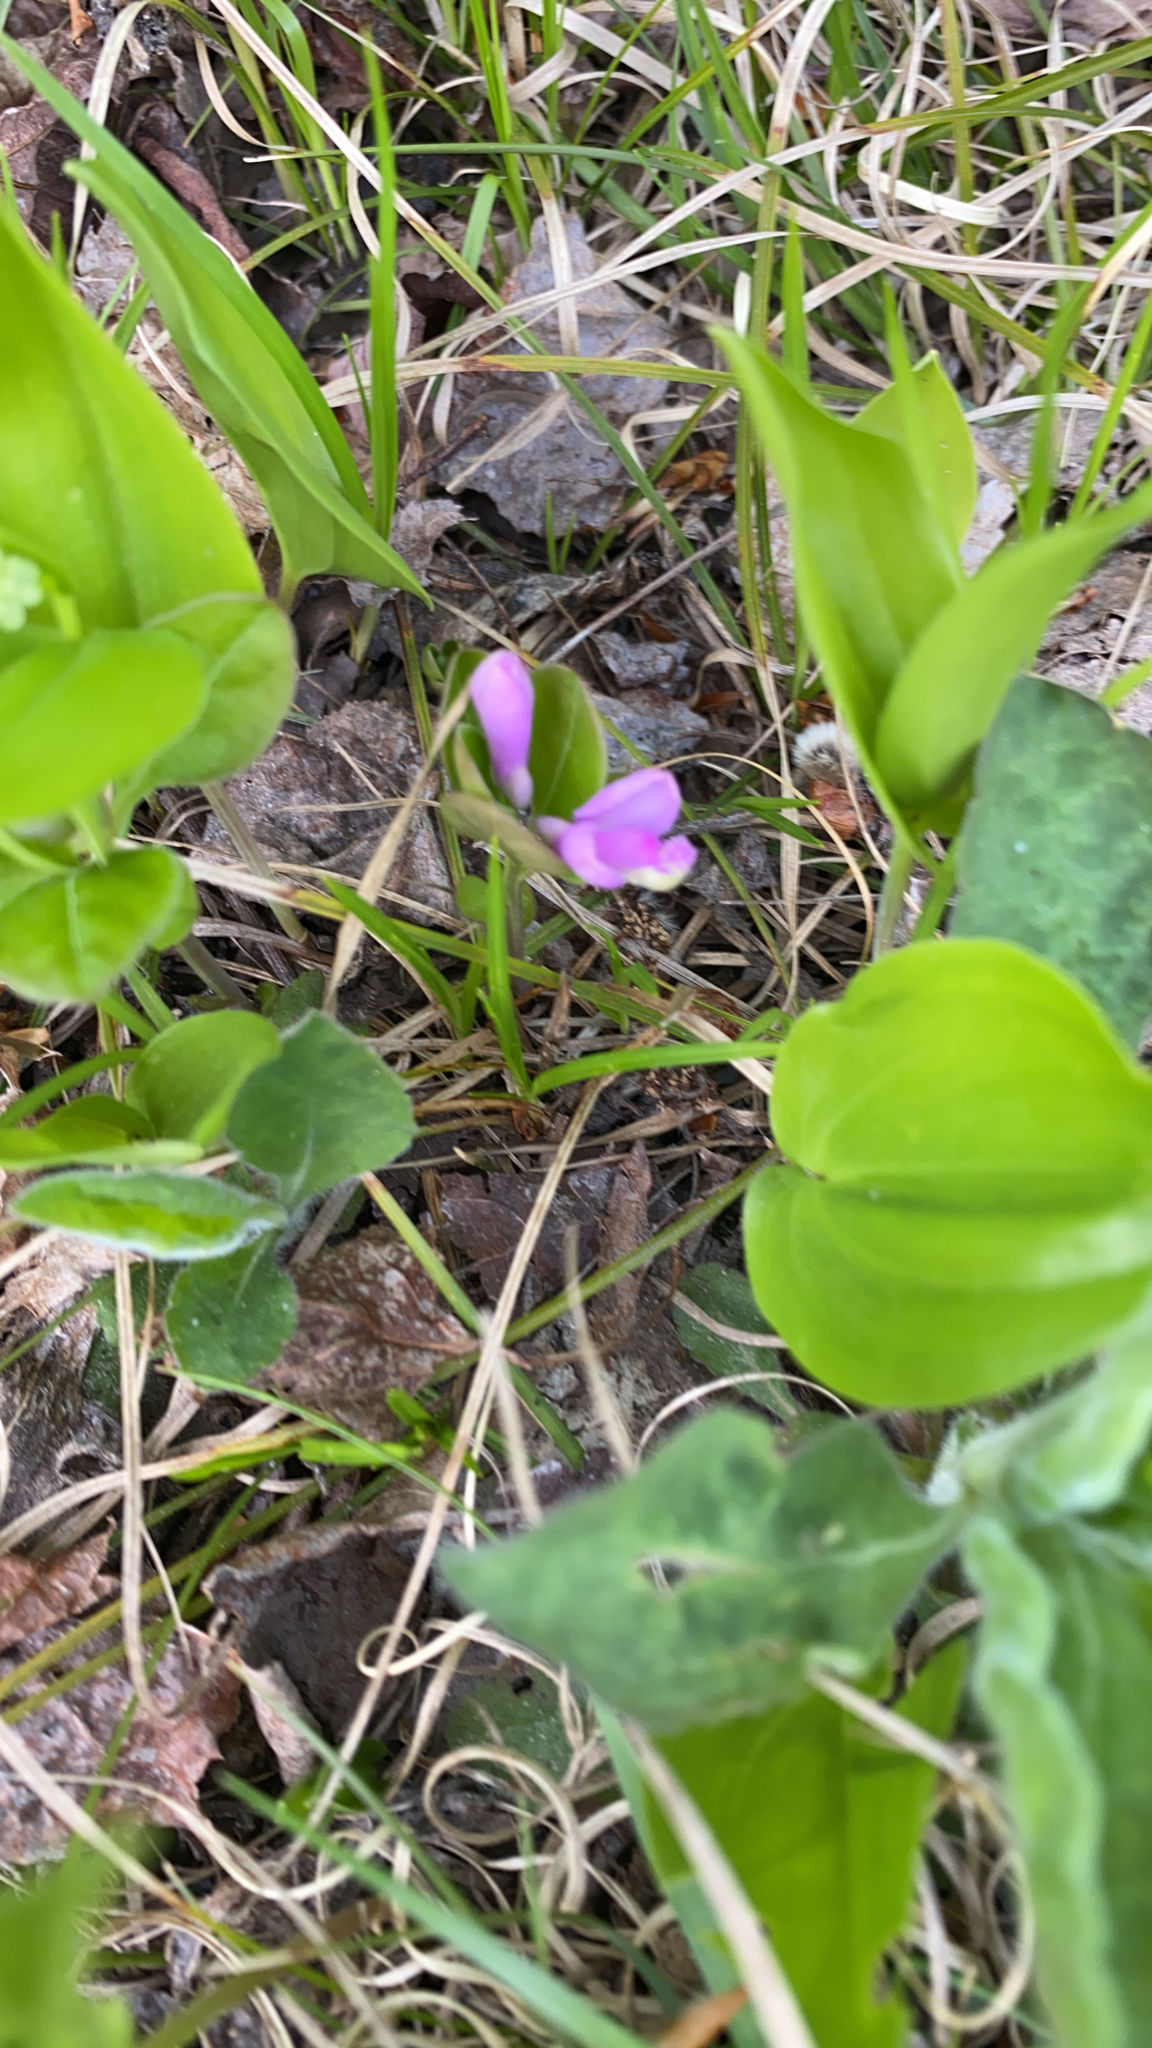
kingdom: Plantae
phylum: Tracheophyta
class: Magnoliopsida
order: Fabales
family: Polygalaceae
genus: Polygaloides
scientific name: Polygaloides paucifolia
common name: Bird-on-the-wing
